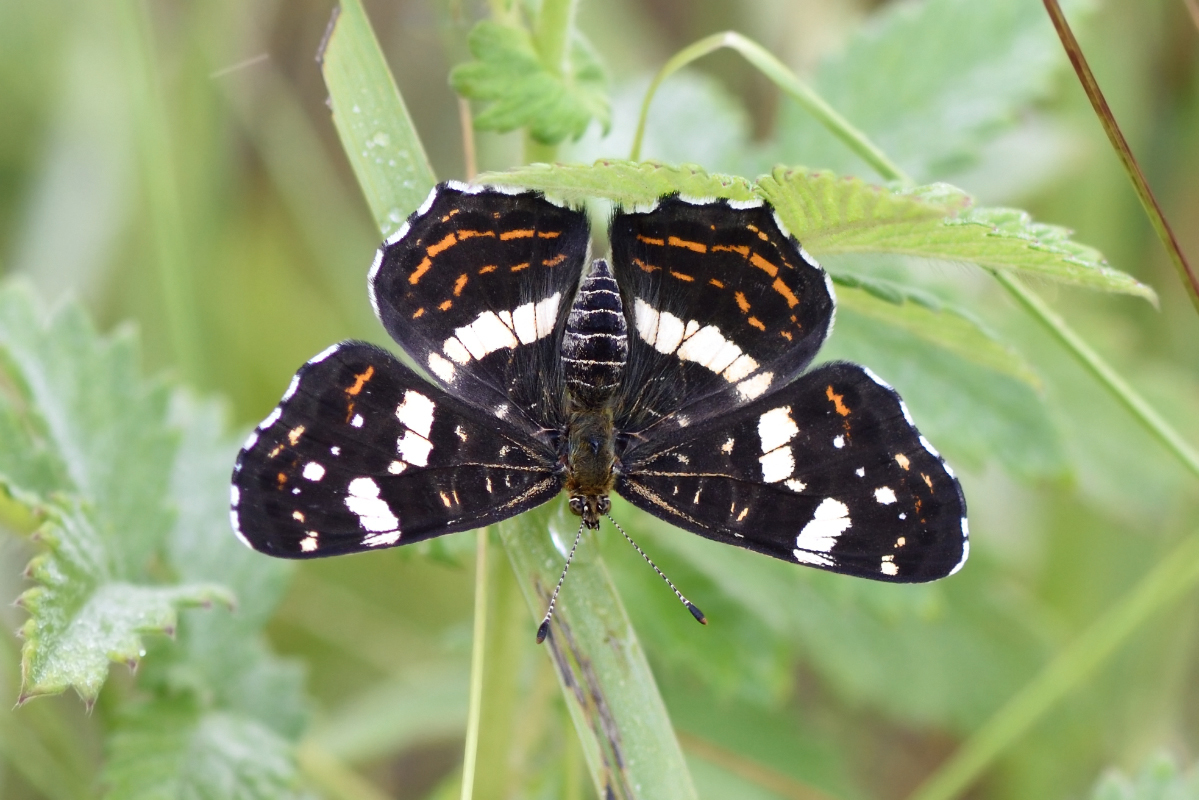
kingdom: Animalia
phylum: Arthropoda
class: Insecta
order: Lepidoptera
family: Nymphalidae
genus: Araschnia
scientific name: Araschnia levana
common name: Map butterfly
